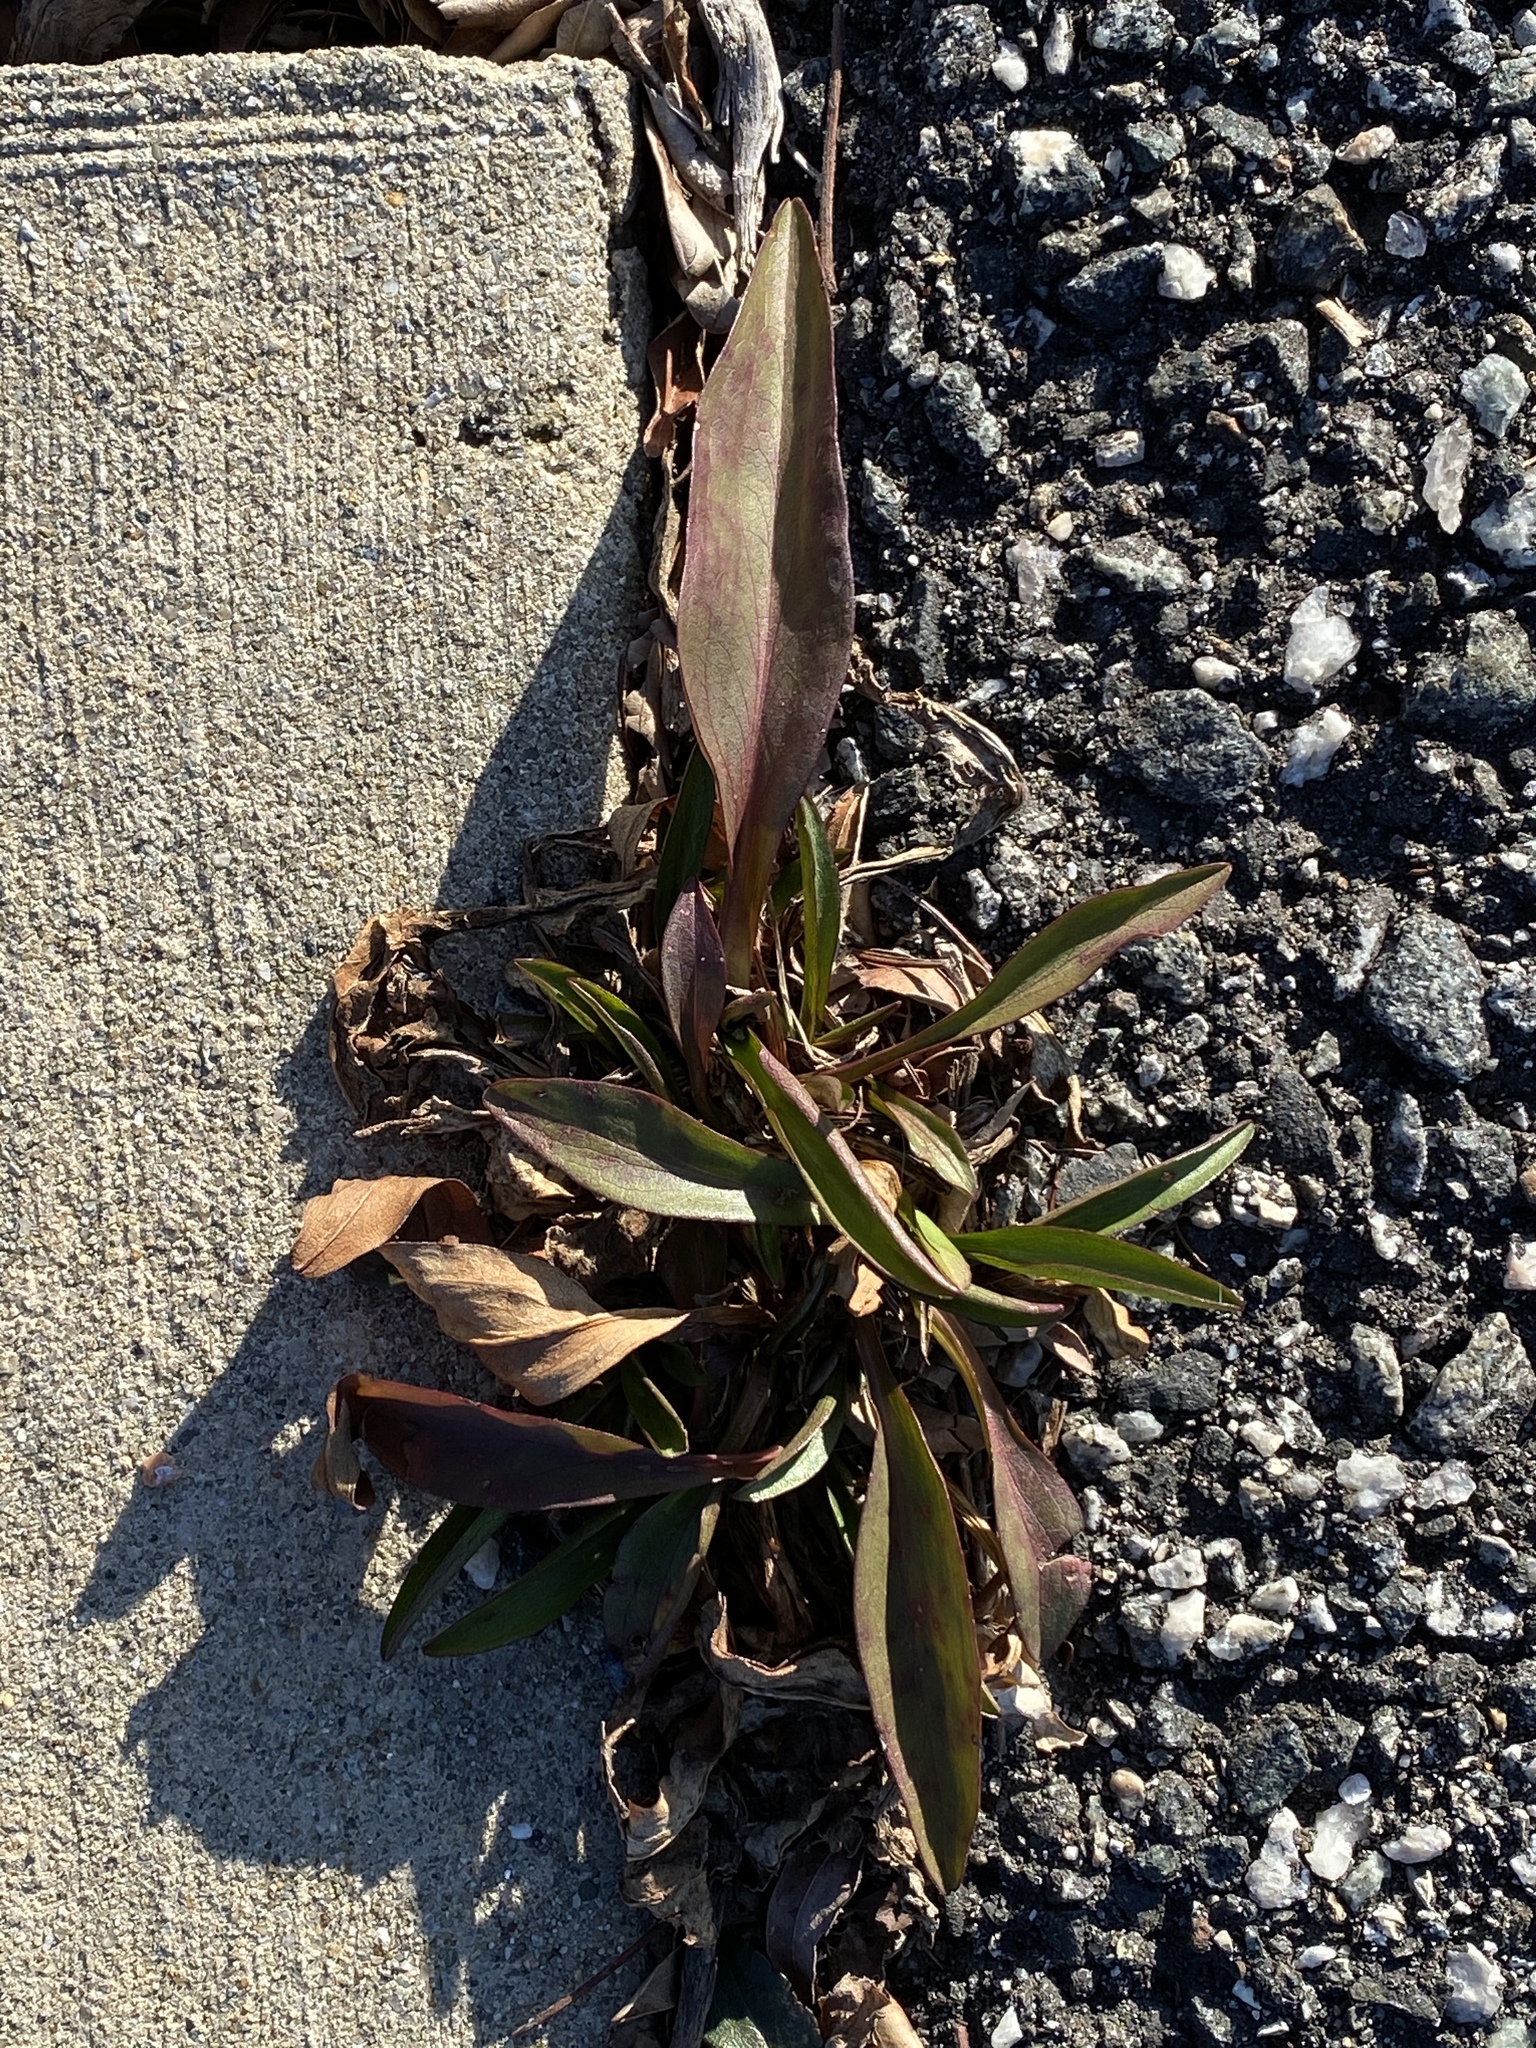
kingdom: Plantae
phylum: Tracheophyta
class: Magnoliopsida
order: Asterales
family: Asteraceae
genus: Solidago
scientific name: Solidago sempervirens
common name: Salt-marsh goldenrod
